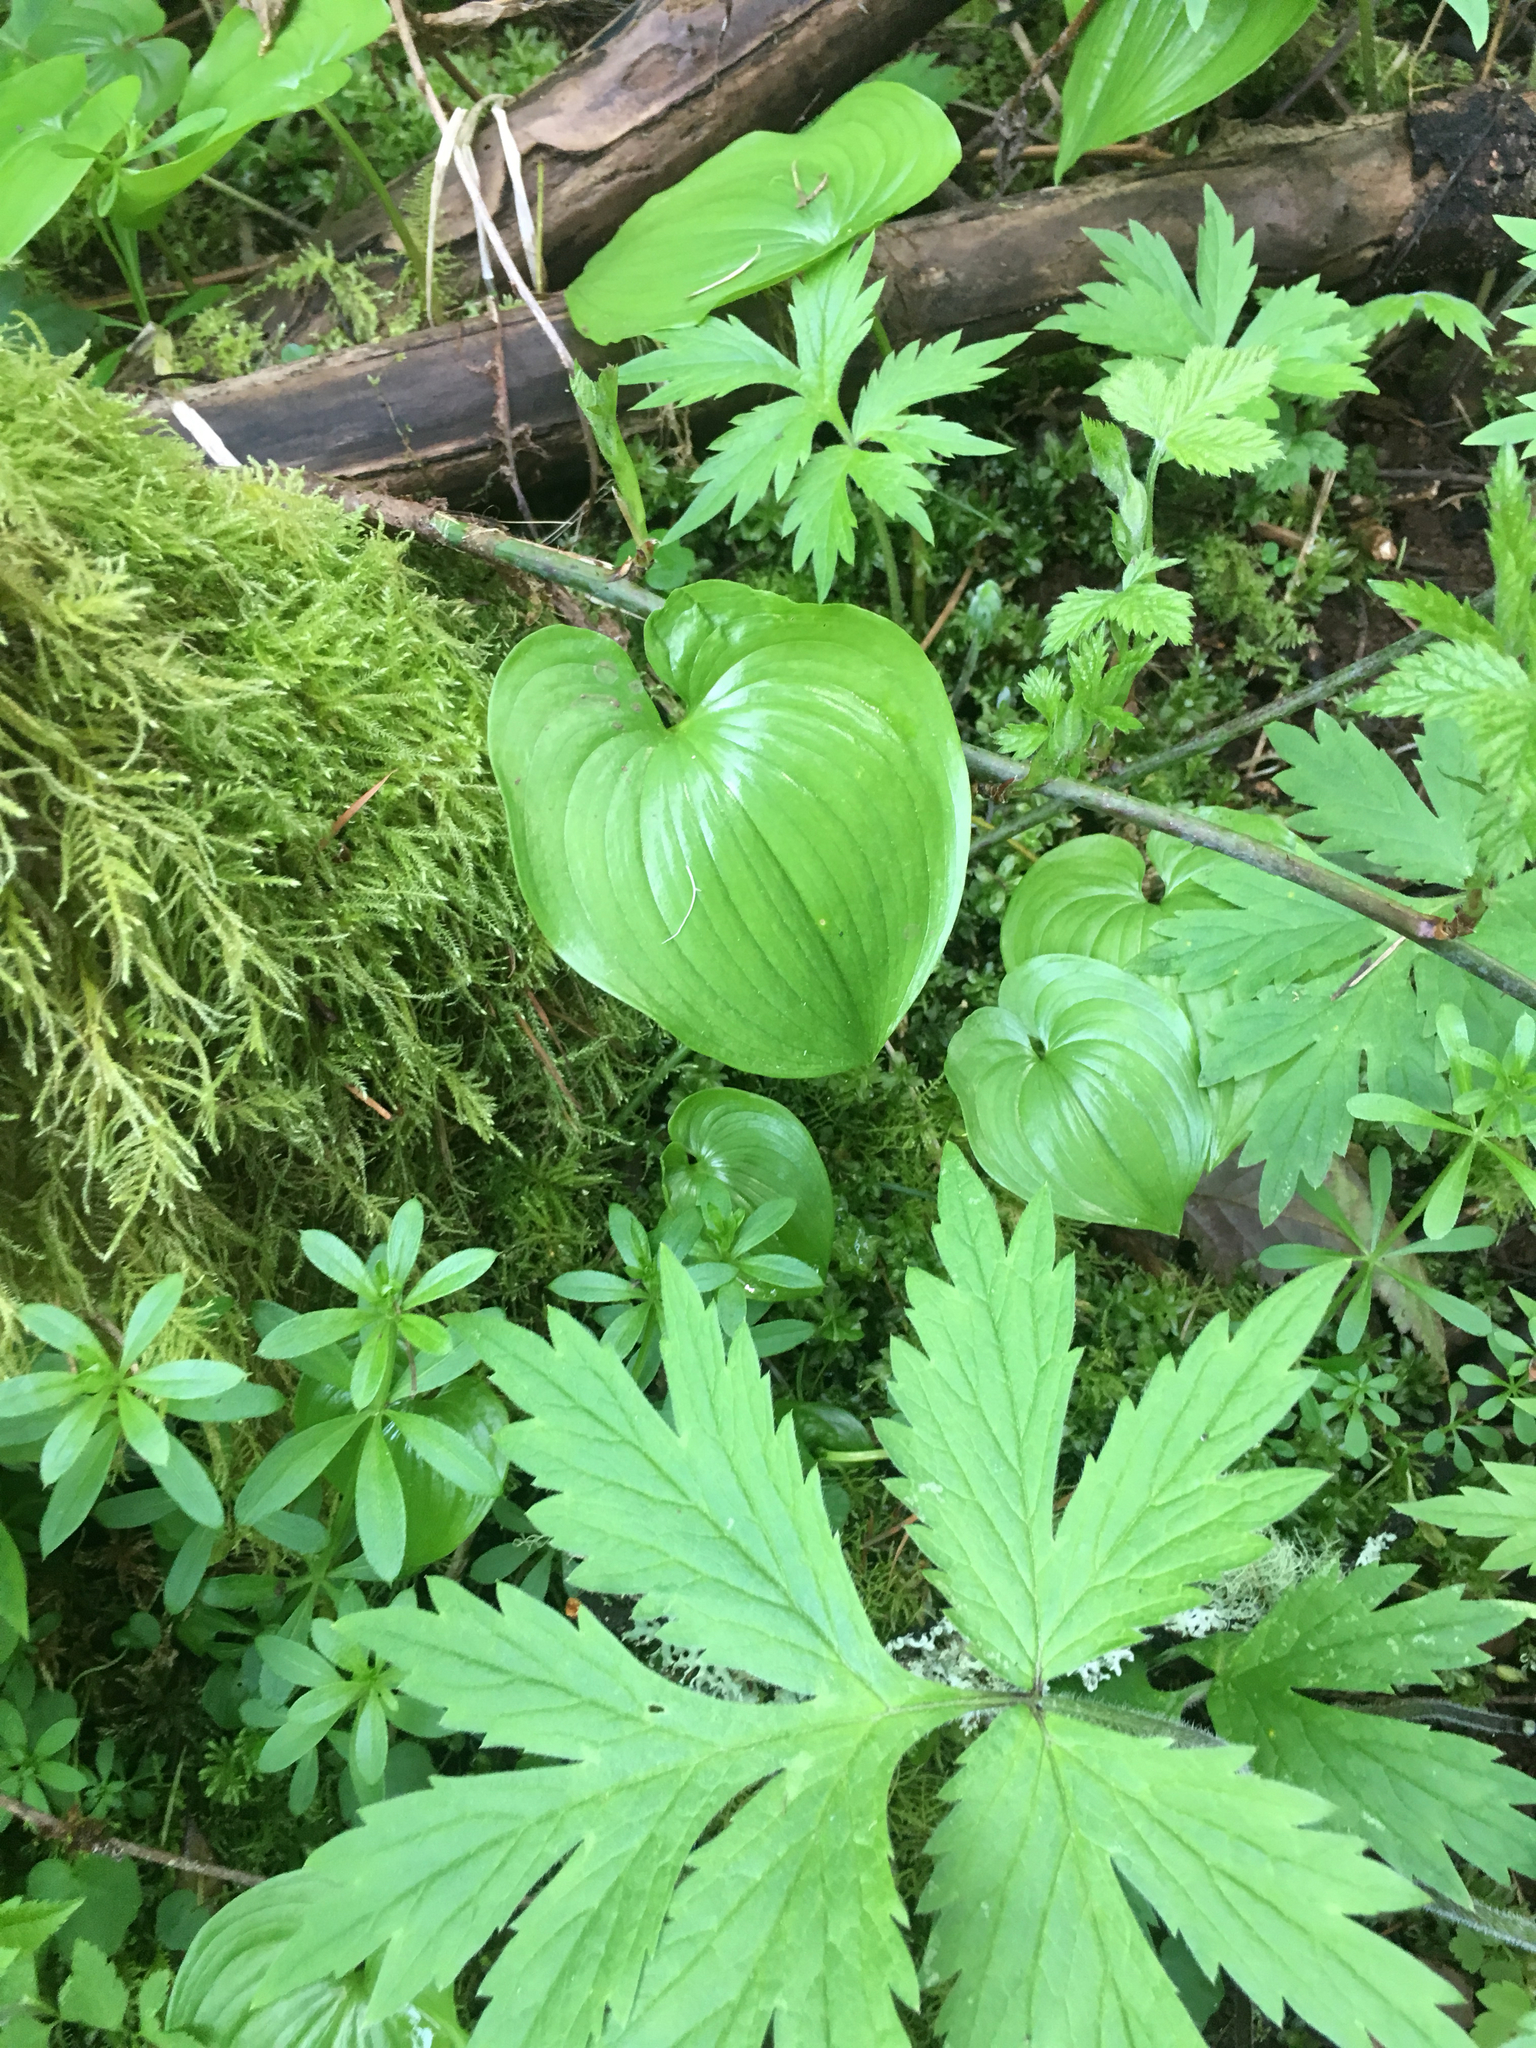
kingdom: Plantae
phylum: Tracheophyta
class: Liliopsida
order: Asparagales
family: Asparagaceae
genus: Maianthemum
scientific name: Maianthemum dilatatum
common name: False lily-of-the-valley
